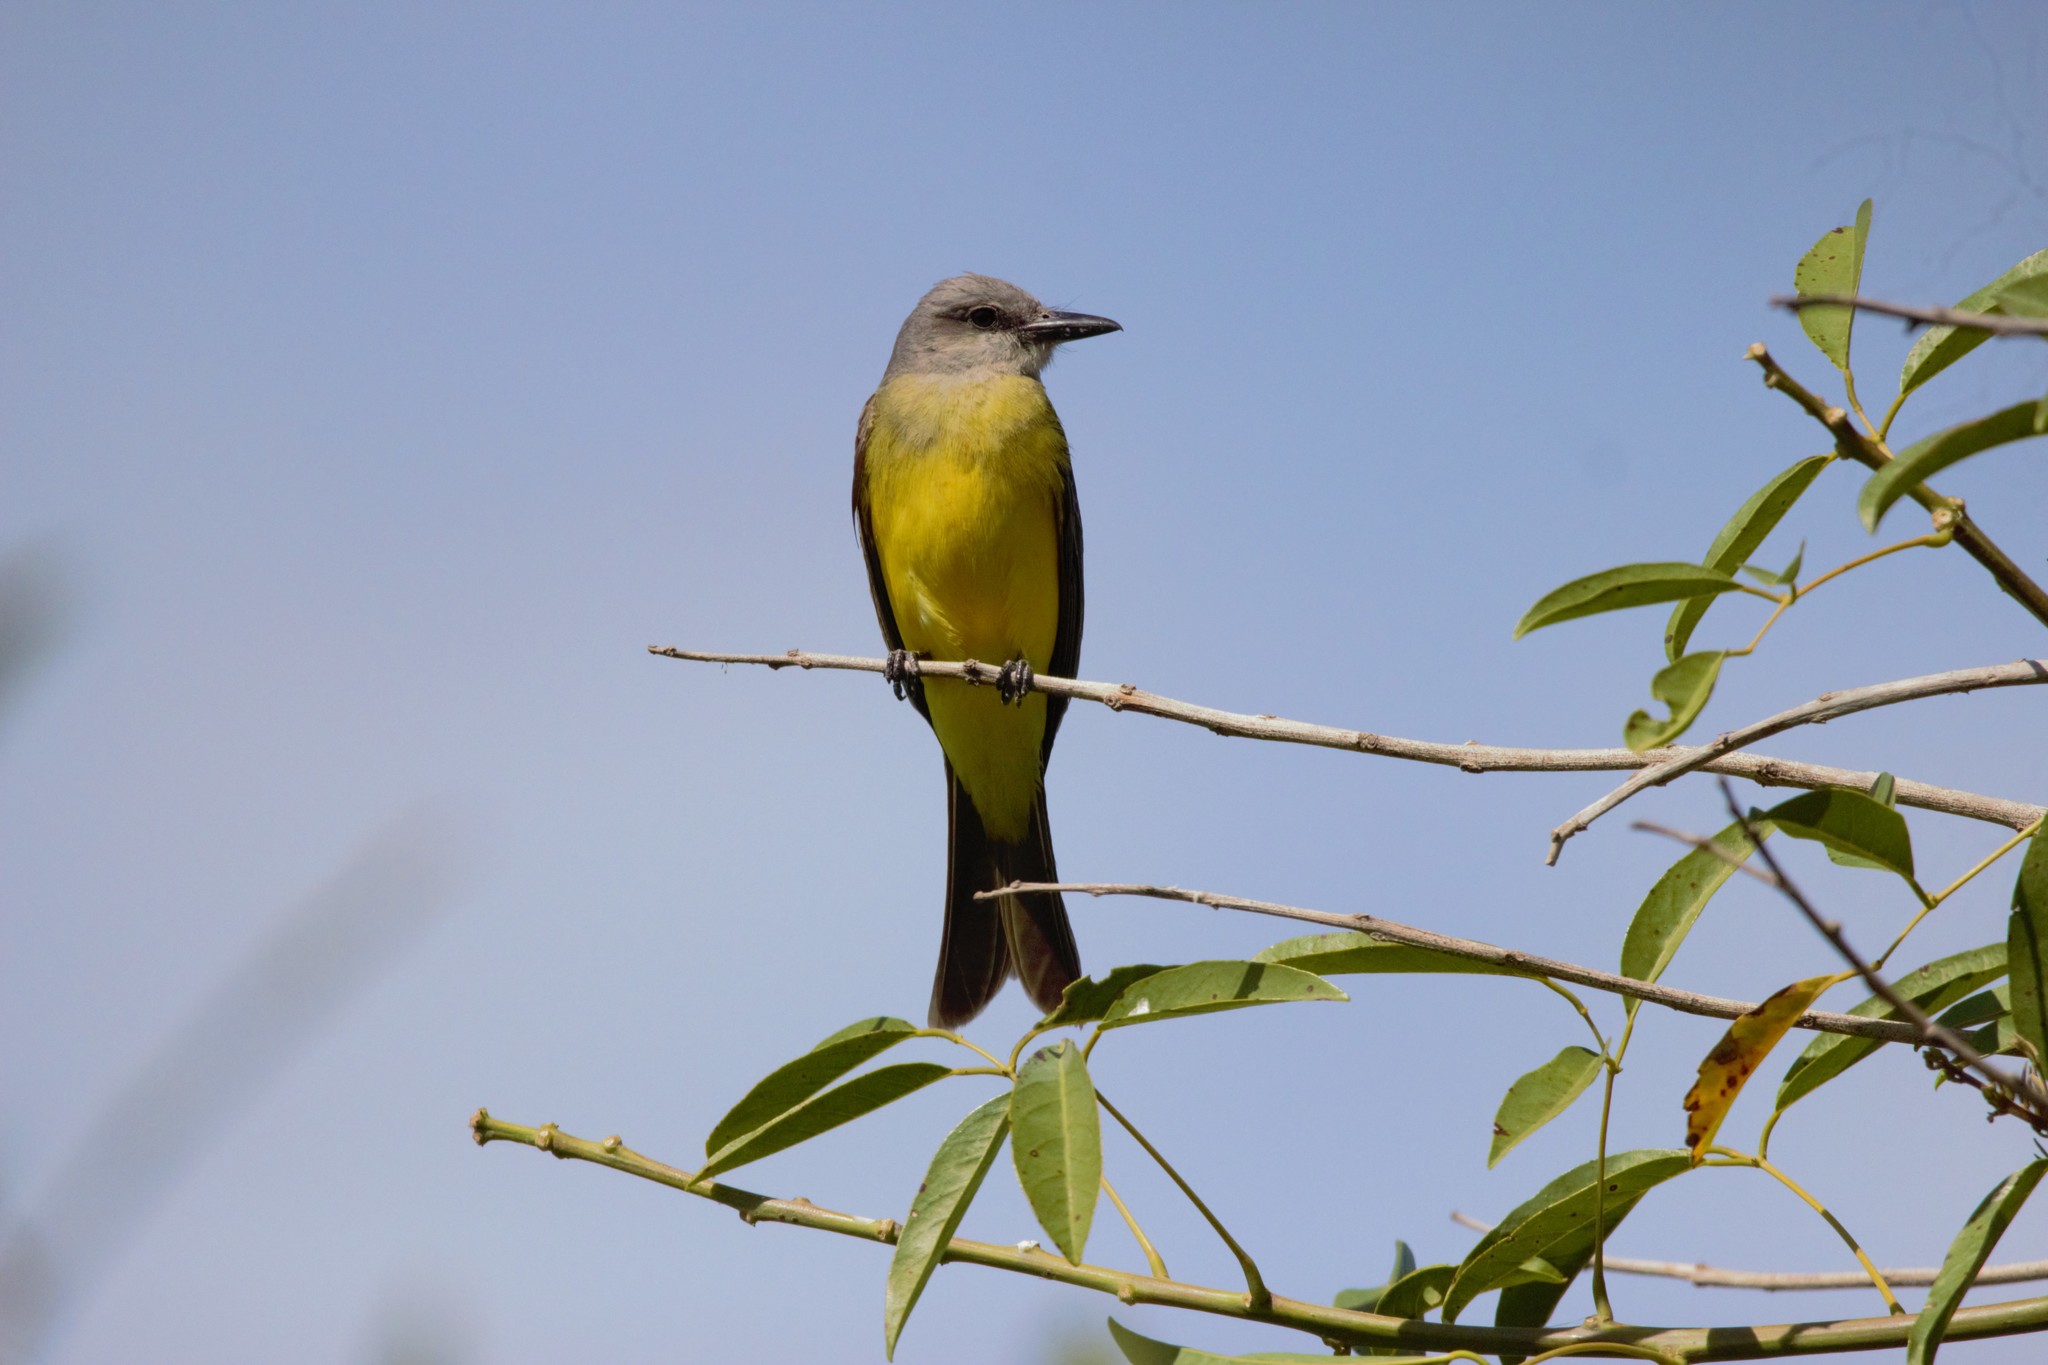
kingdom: Animalia
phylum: Chordata
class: Aves
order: Passeriformes
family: Tyrannidae
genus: Tyrannus
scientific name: Tyrannus melancholicus
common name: Tropical kingbird
